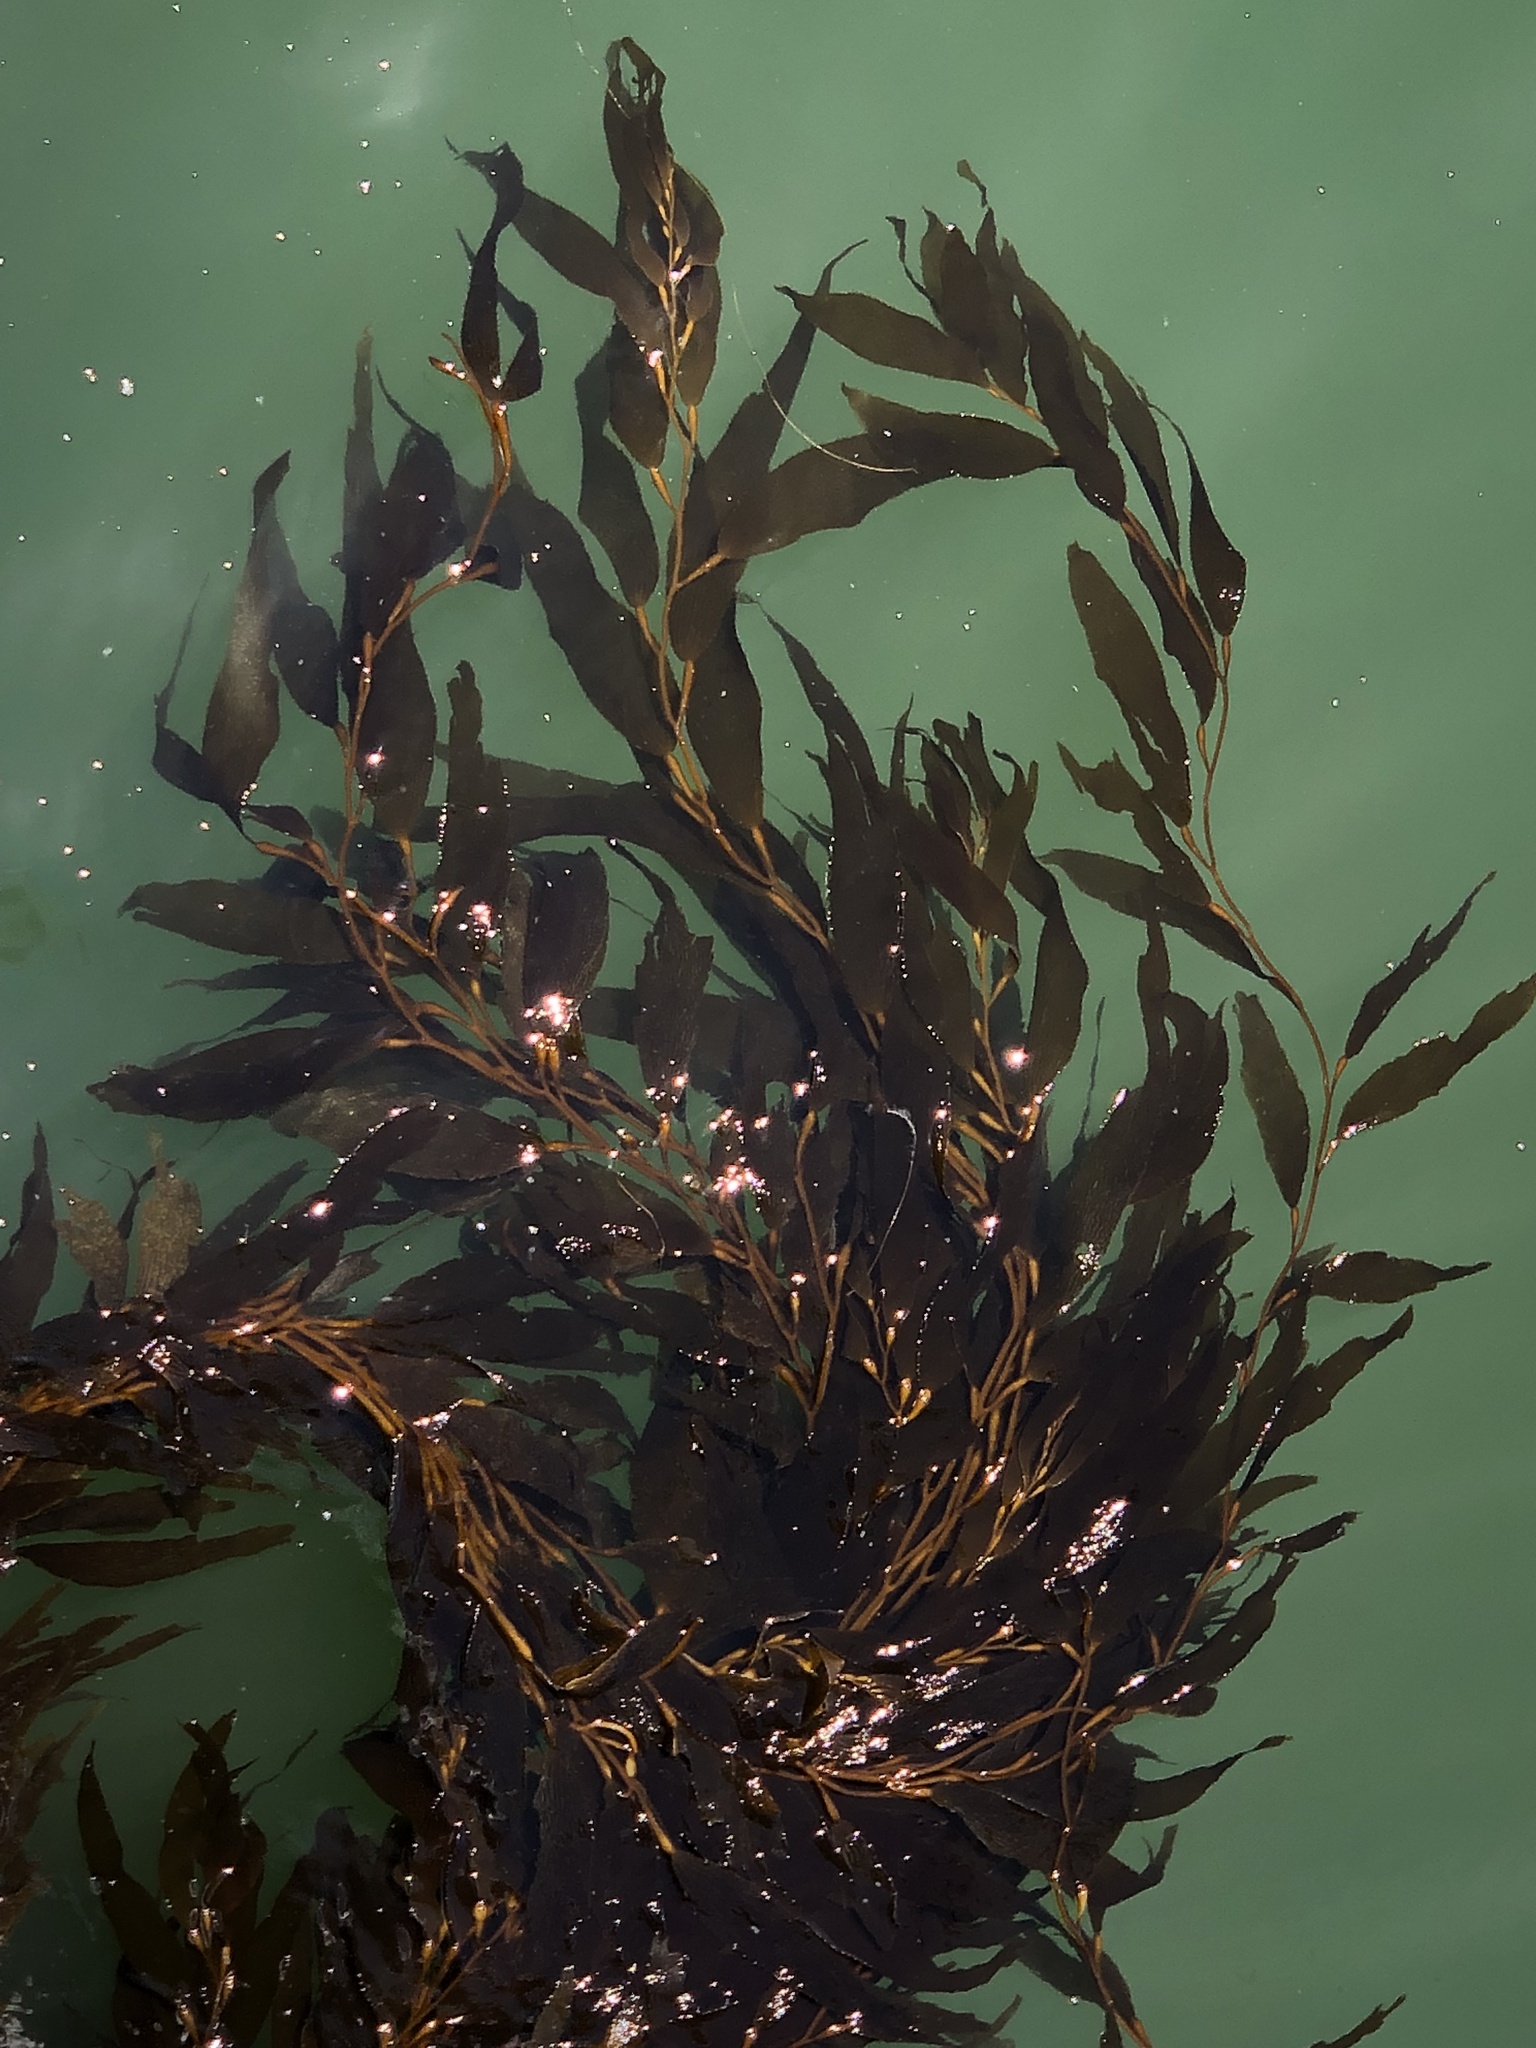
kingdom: Chromista
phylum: Ochrophyta
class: Phaeophyceae
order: Laminariales
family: Laminariaceae
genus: Macrocystis
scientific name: Macrocystis pyrifera
